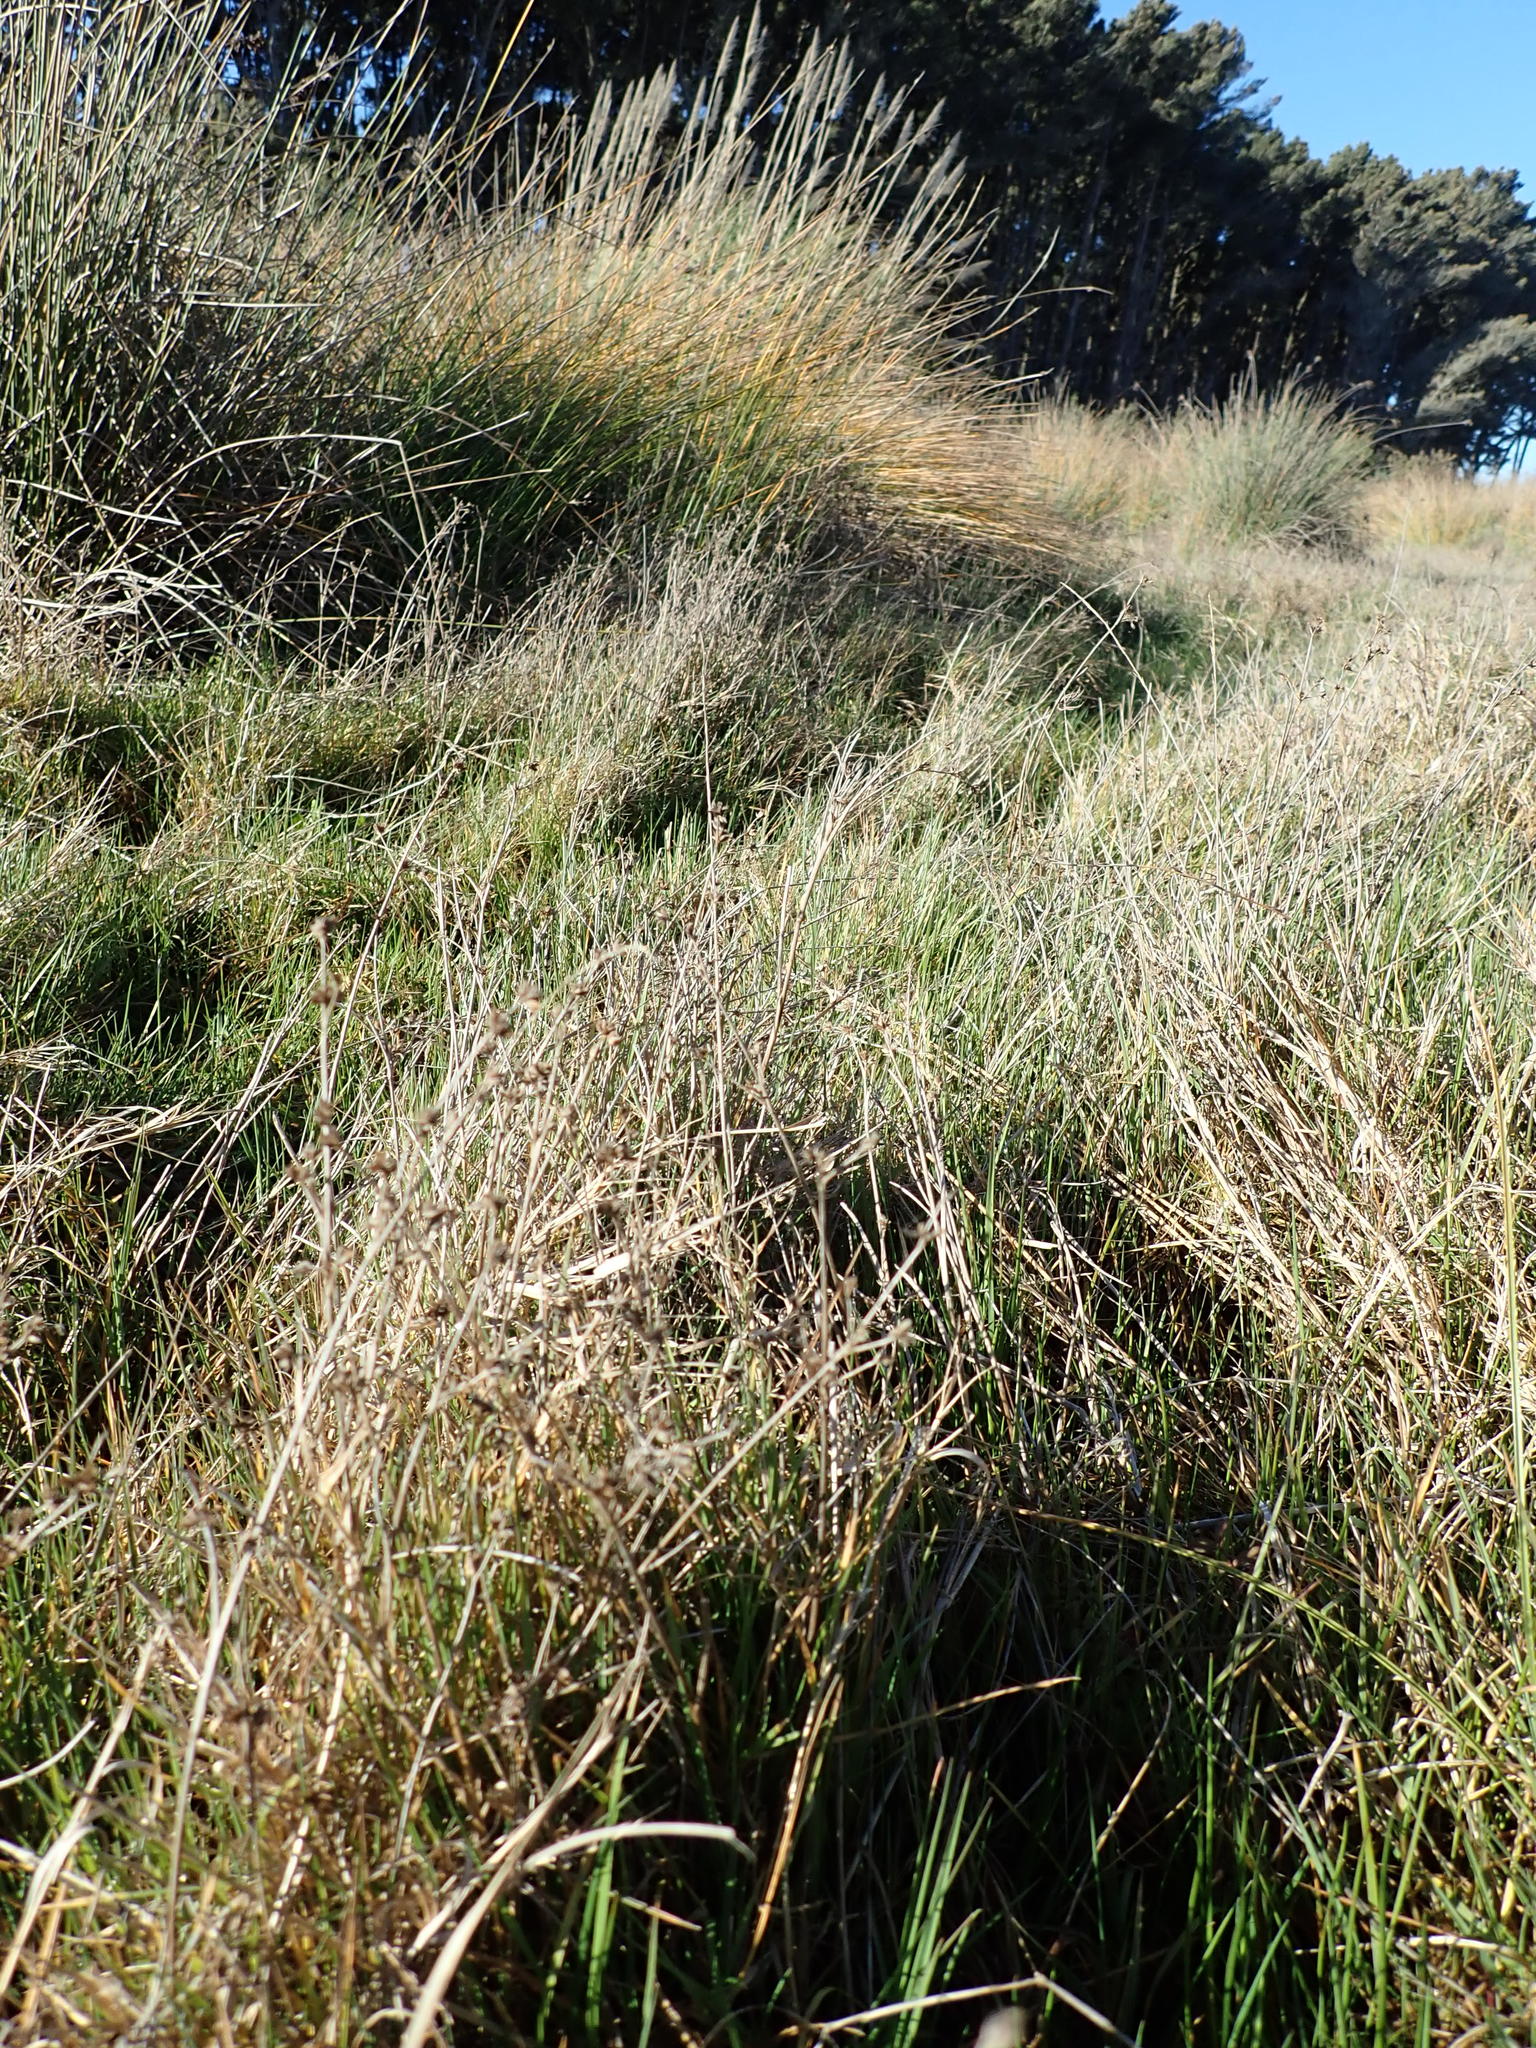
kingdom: Plantae
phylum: Tracheophyta
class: Liliopsida
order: Poales
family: Juncaceae
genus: Juncus
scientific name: Juncus articulatus
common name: Jointed rush
